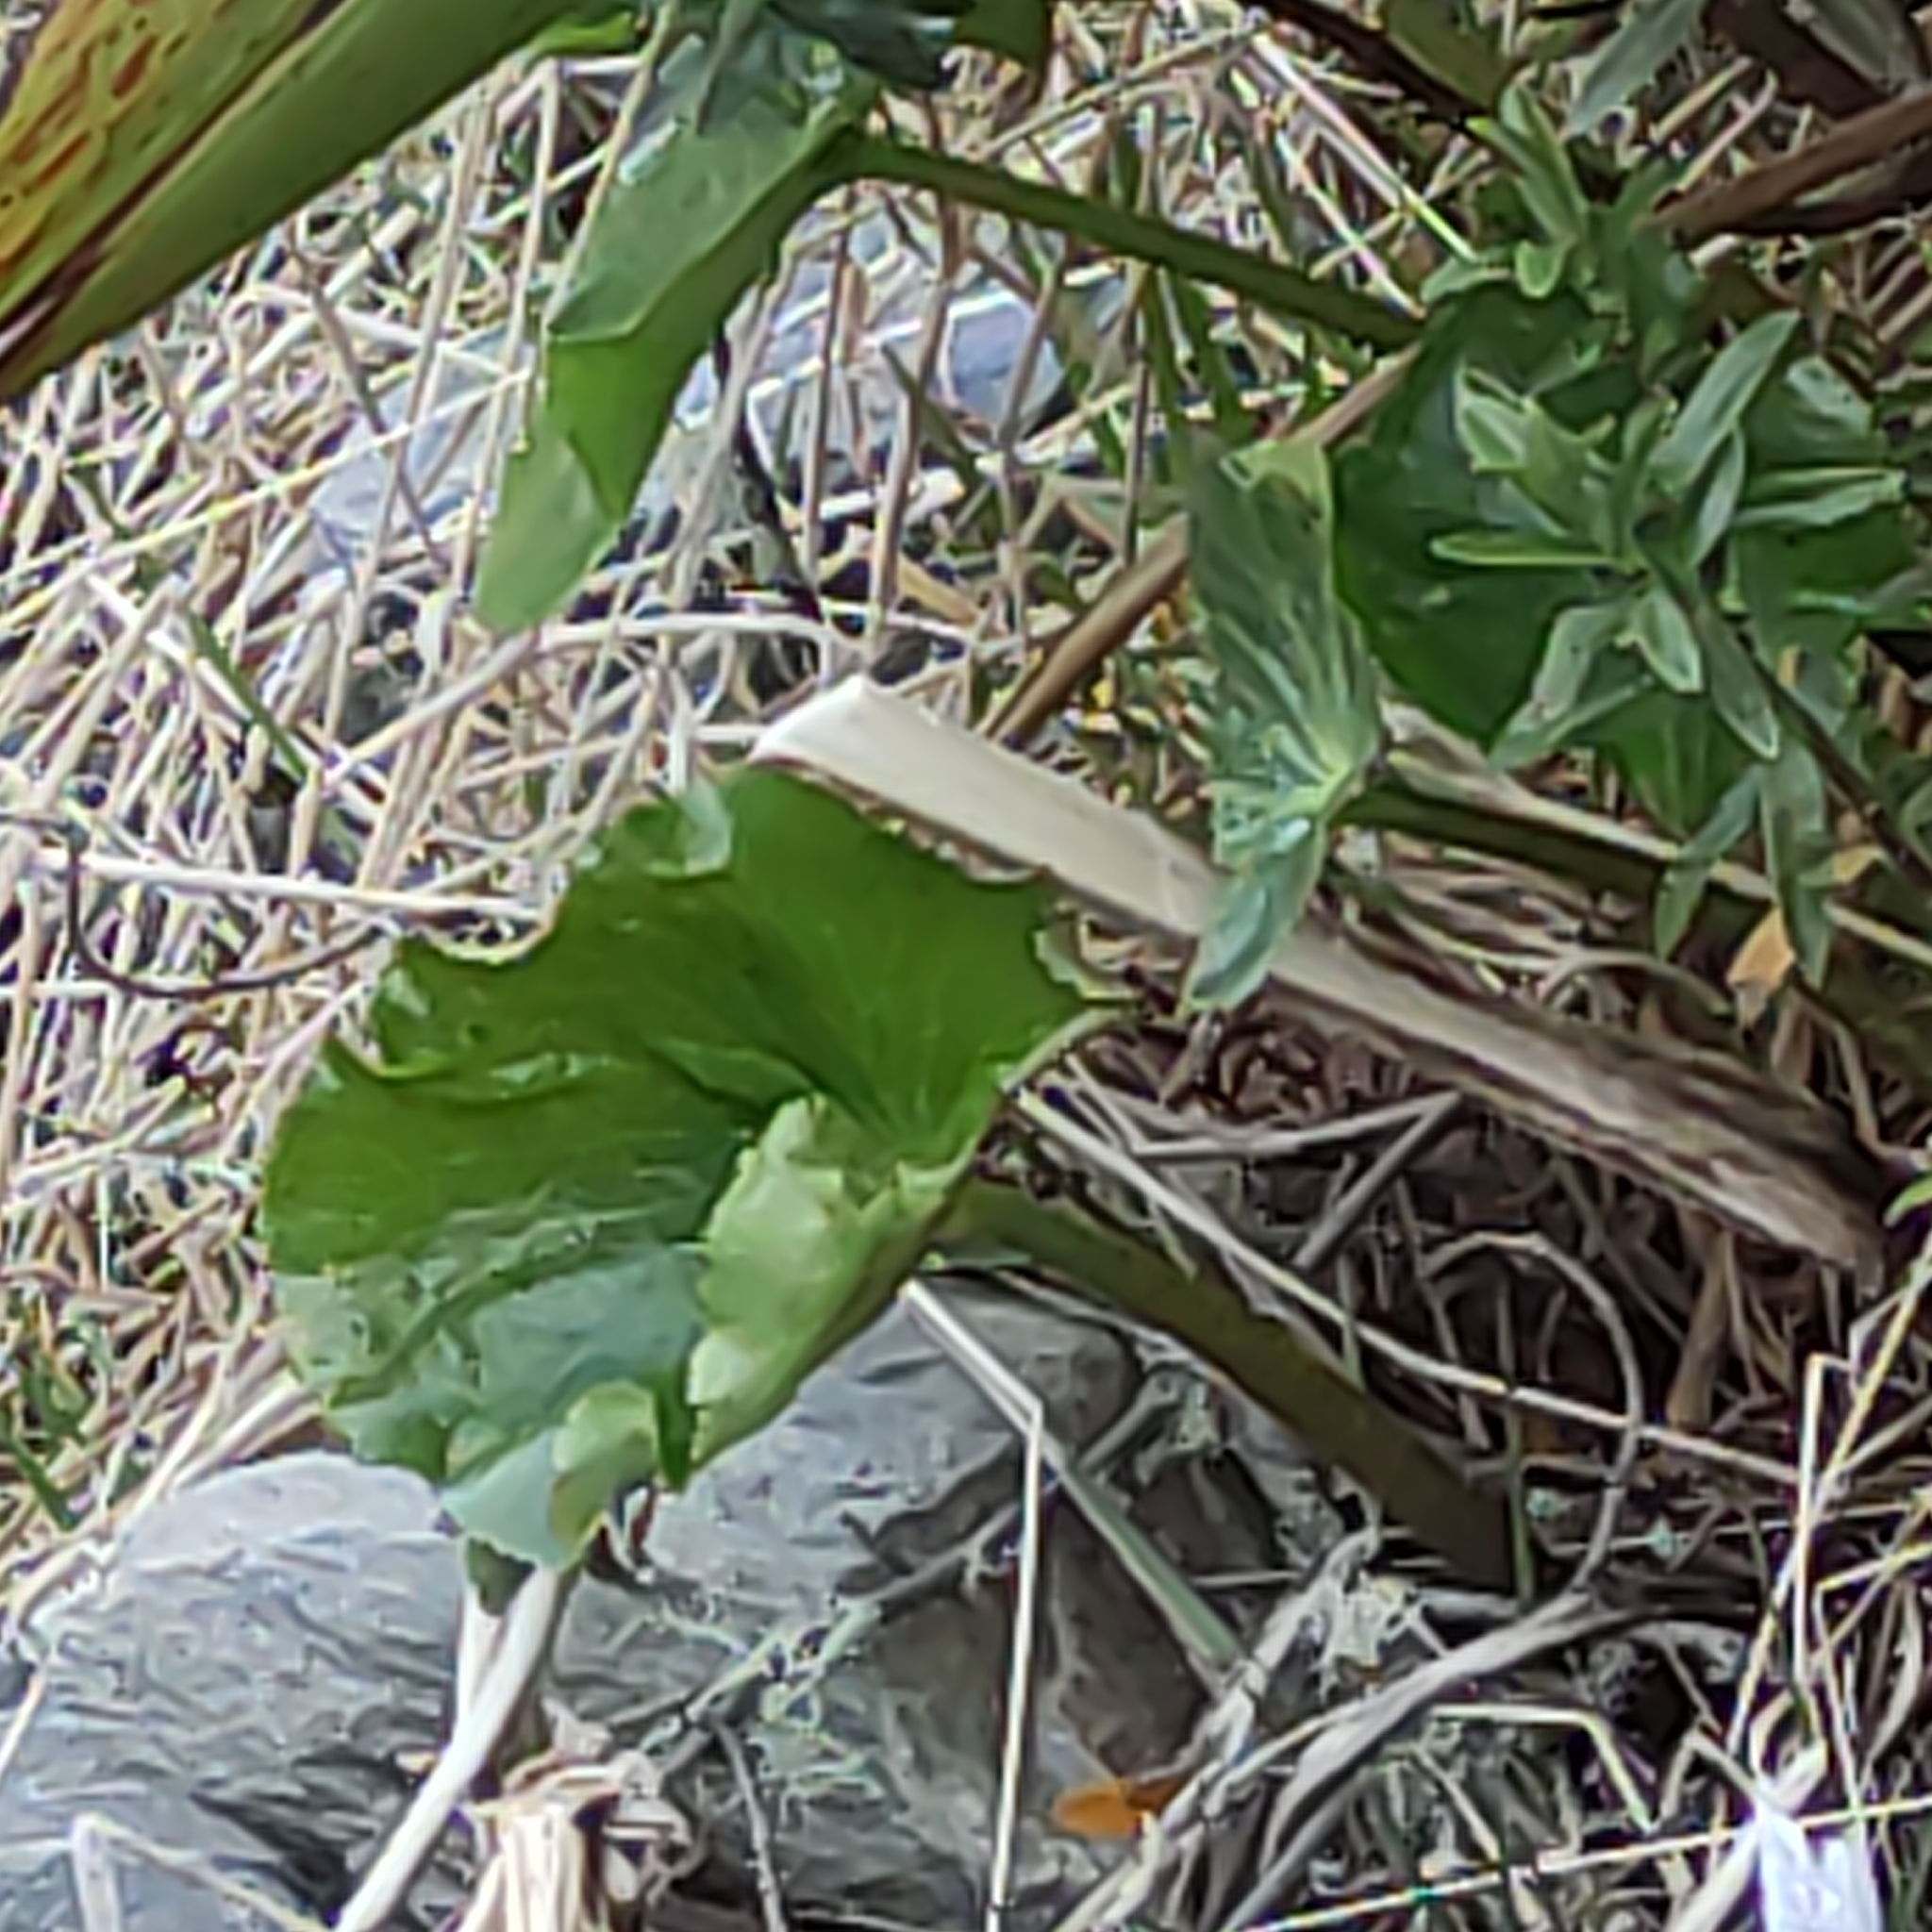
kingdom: Plantae
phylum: Tracheophyta
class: Magnoliopsida
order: Ranunculales
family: Ranunculaceae
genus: Ranunculus
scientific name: Ranunculus lyallii
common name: Mountain-lily
